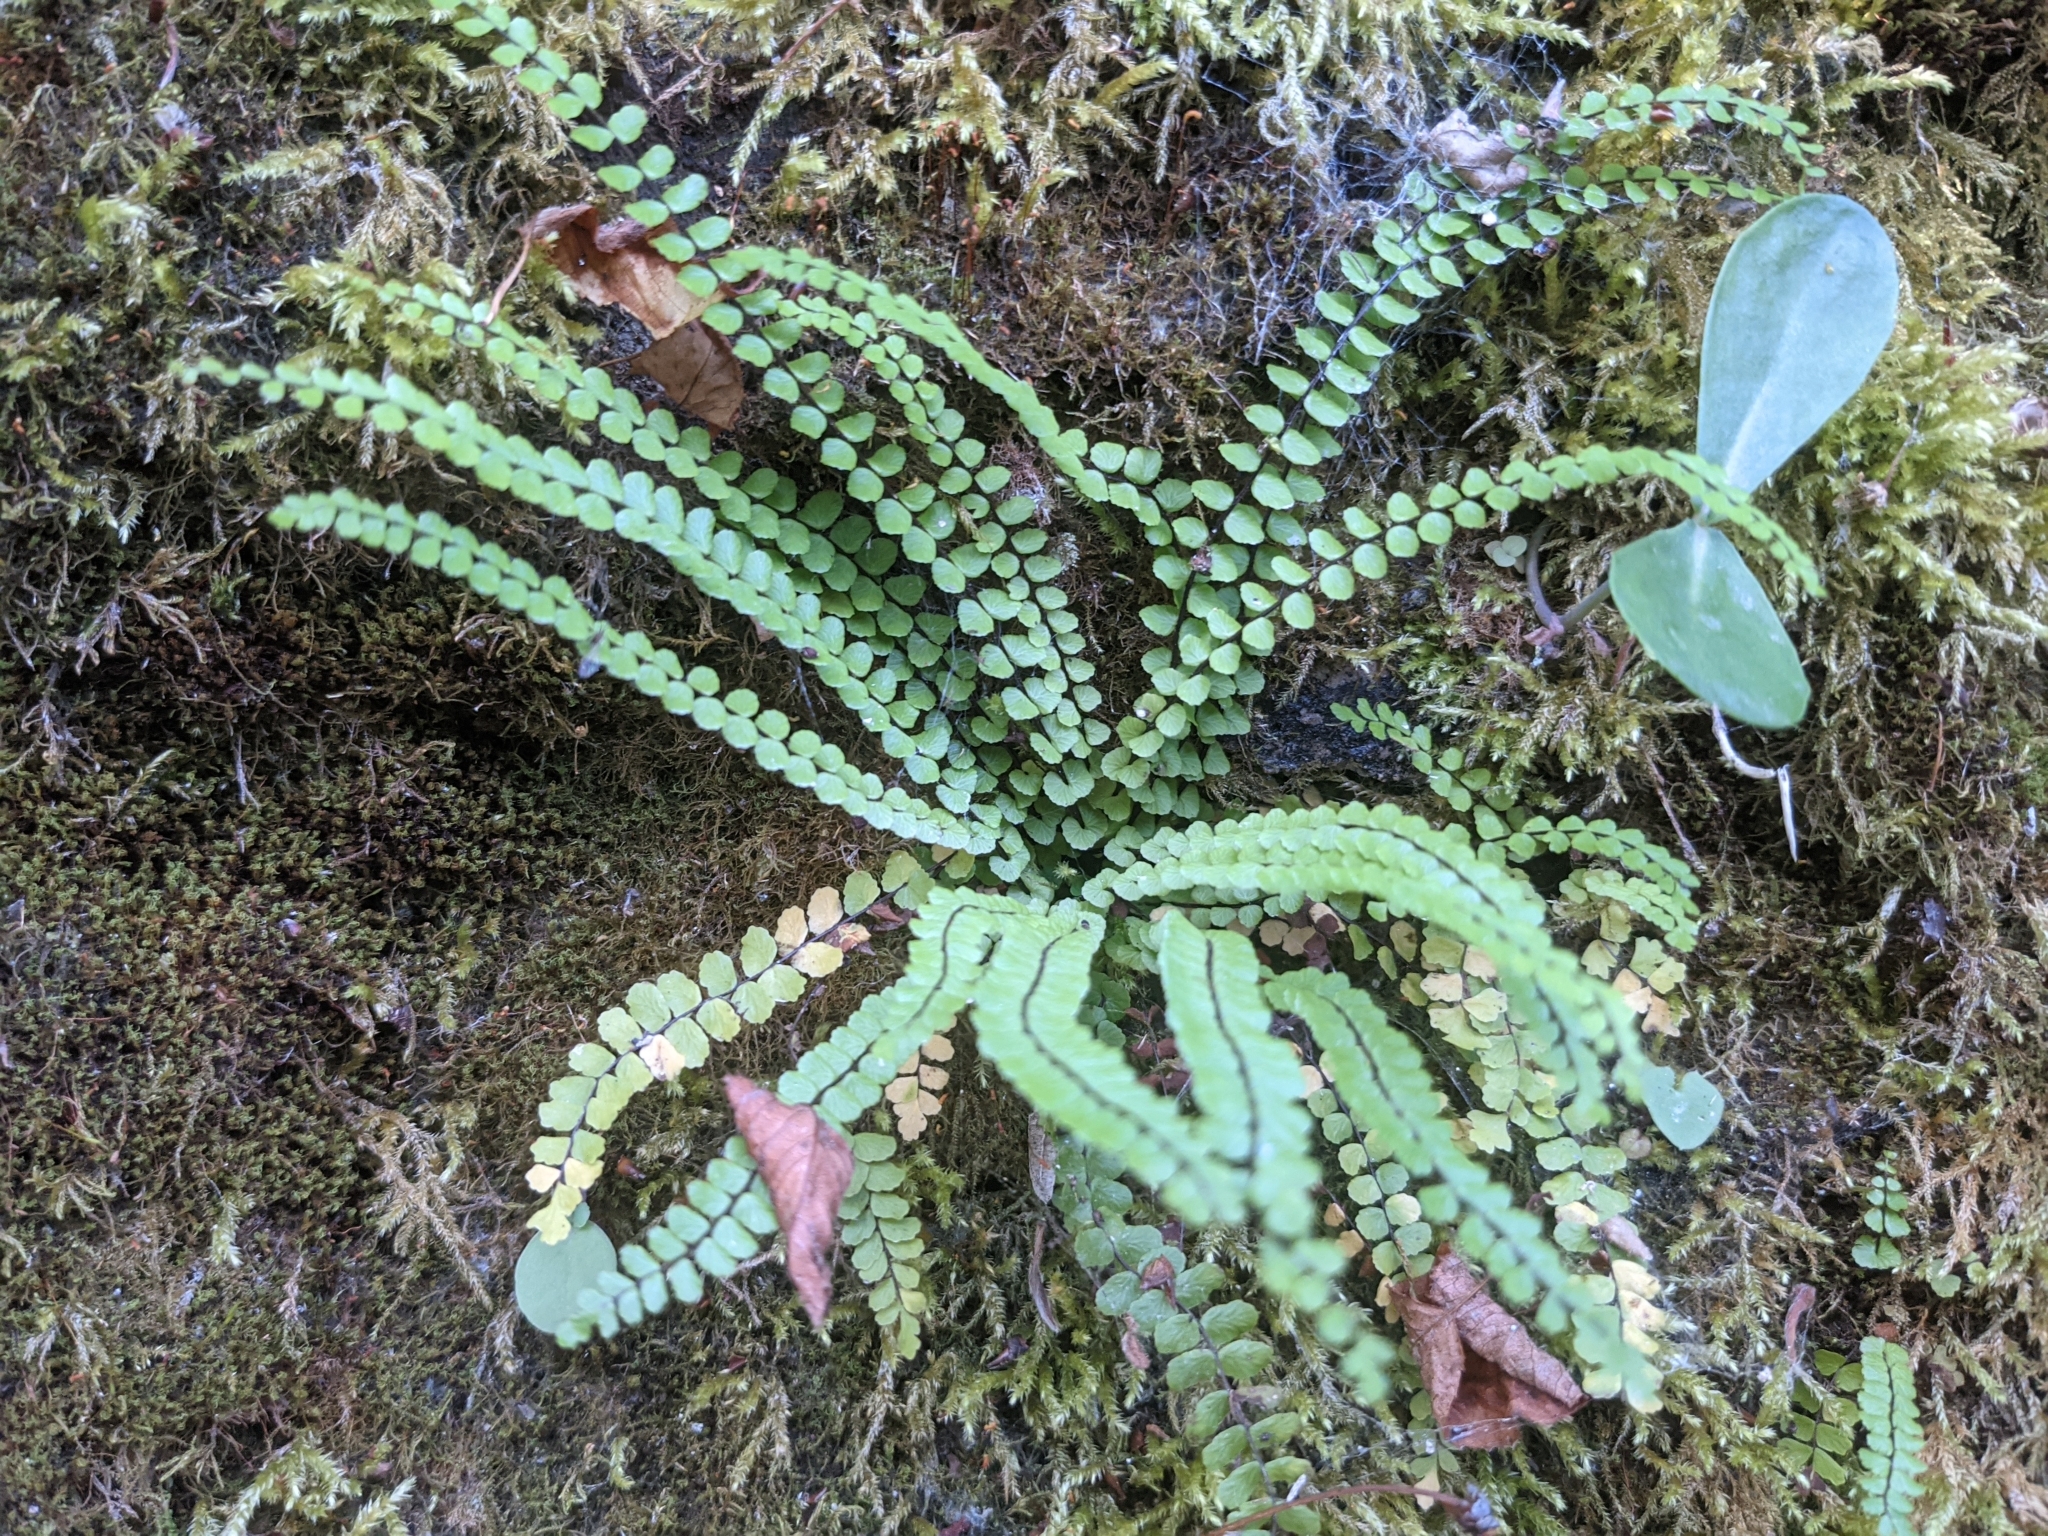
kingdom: Plantae
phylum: Tracheophyta
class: Polypodiopsida
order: Polypodiales
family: Aspleniaceae
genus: Asplenium
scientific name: Asplenium trichomanes
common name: Maidenhair spleenwort
